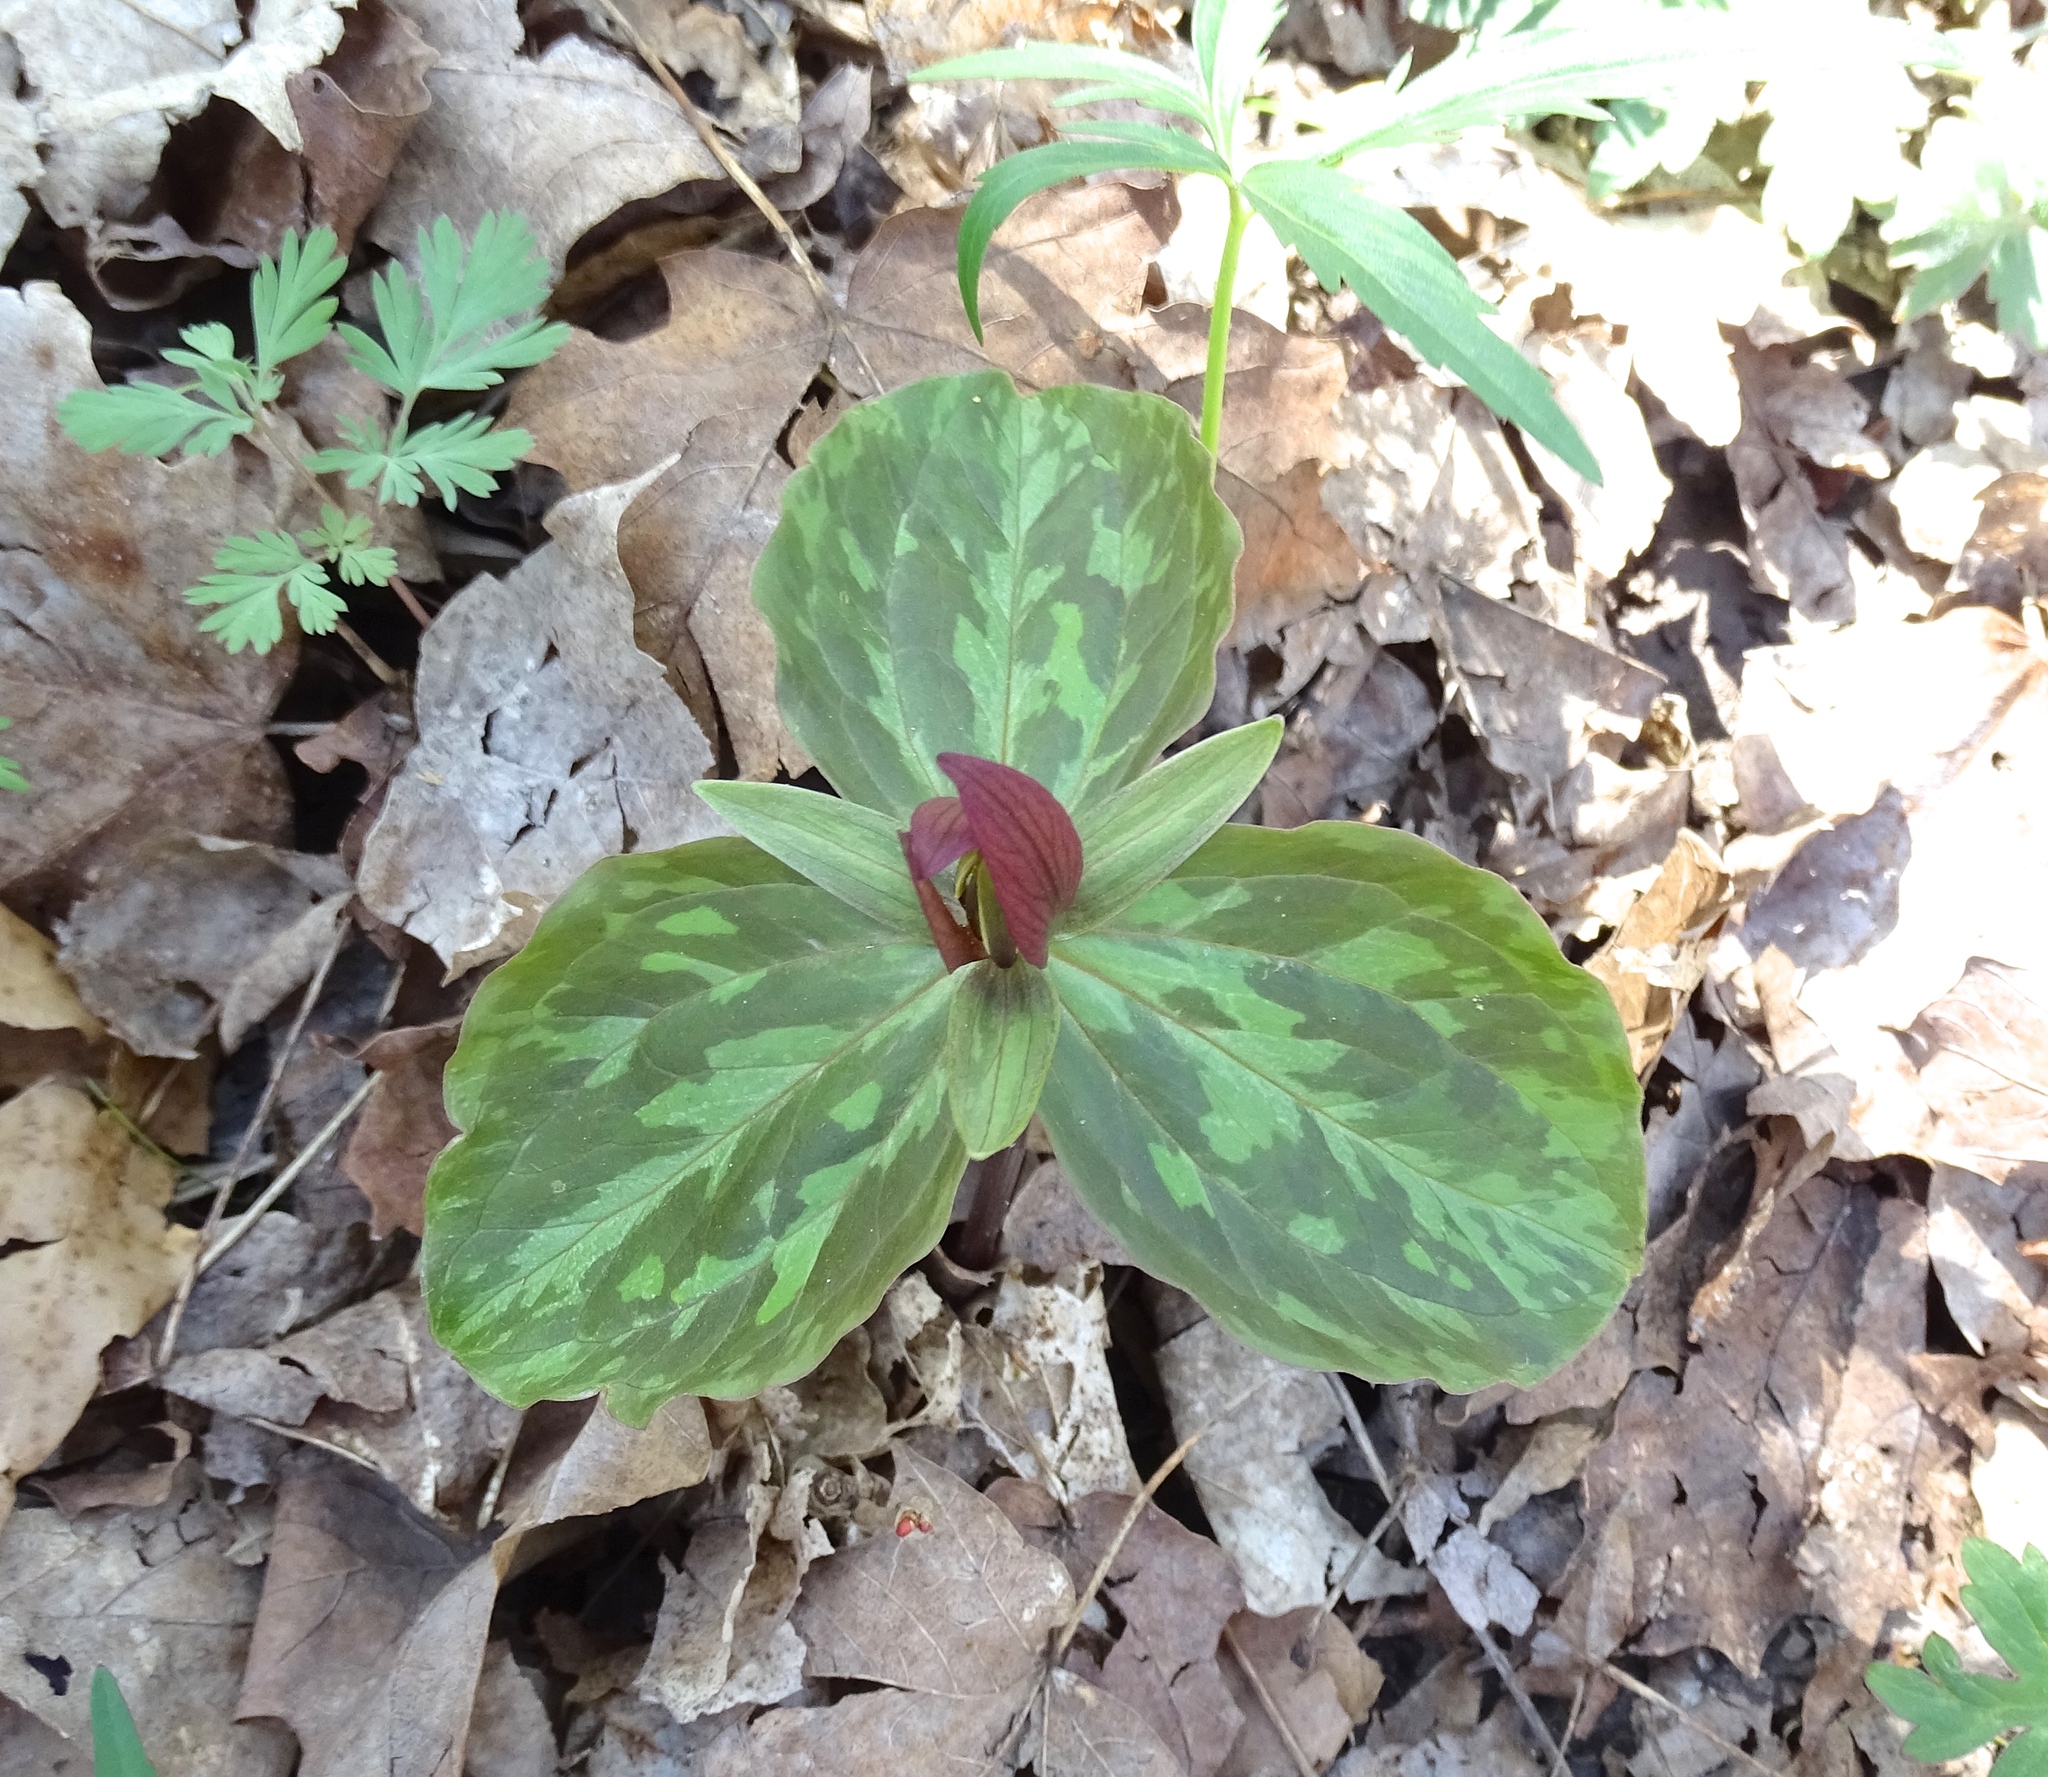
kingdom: Plantae
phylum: Tracheophyta
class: Liliopsida
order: Liliales
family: Melanthiaceae
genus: Trillium
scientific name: Trillium sessile
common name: Sessile trillium
